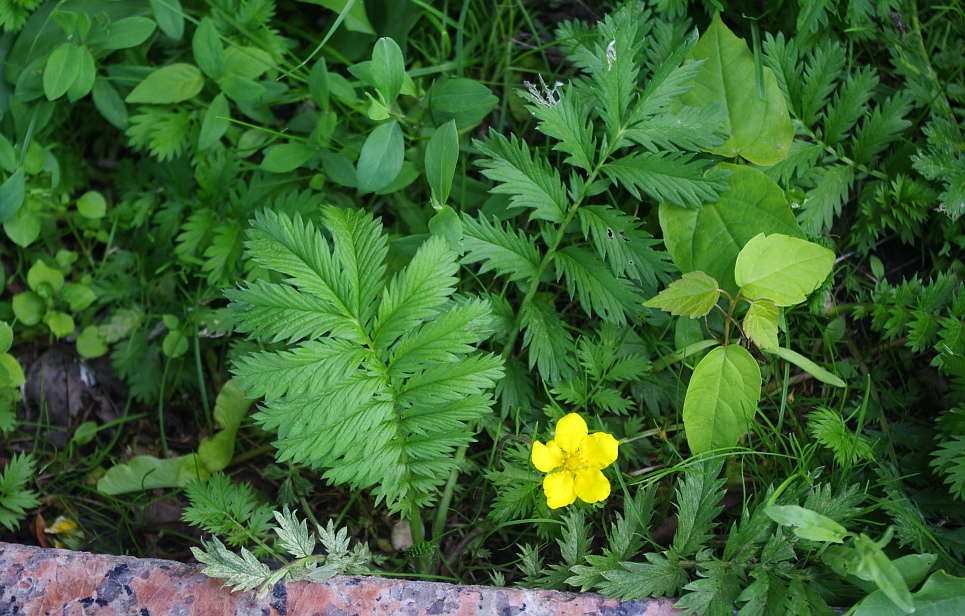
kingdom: Plantae
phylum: Tracheophyta
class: Magnoliopsida
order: Sapindales
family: Sapindaceae
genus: Acer
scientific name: Acer negundo
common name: Ashleaf maple
